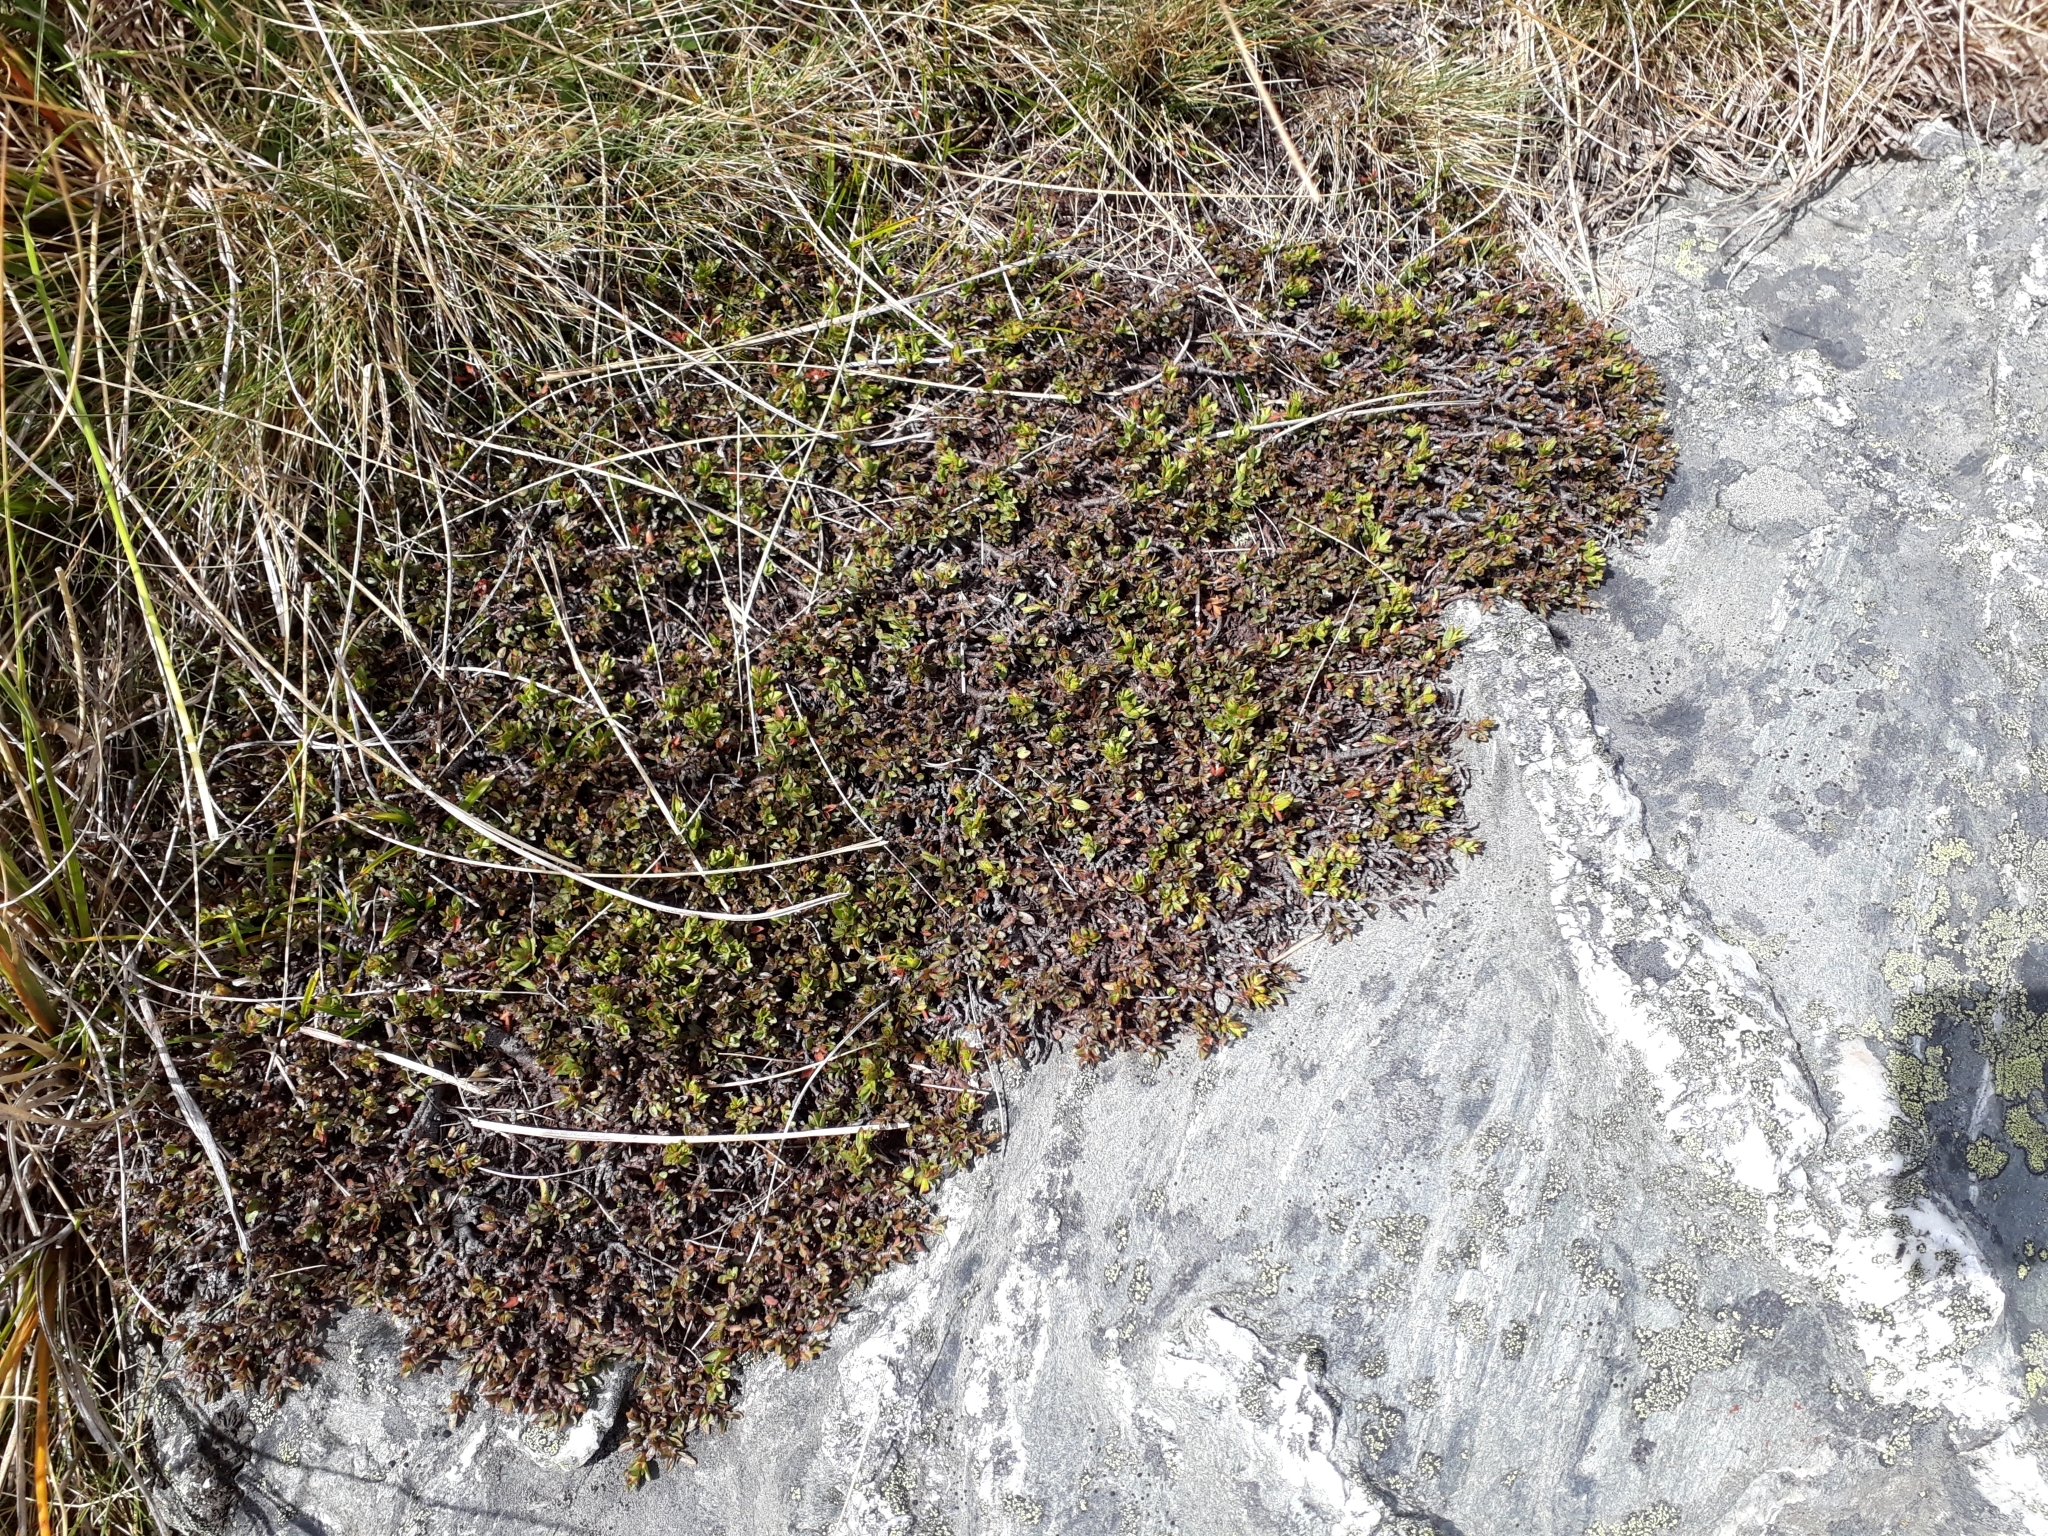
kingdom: Plantae
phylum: Tracheophyta
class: Magnoliopsida
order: Malvales
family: Thymelaeaceae
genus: Pimelea
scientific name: Pimelea notia
